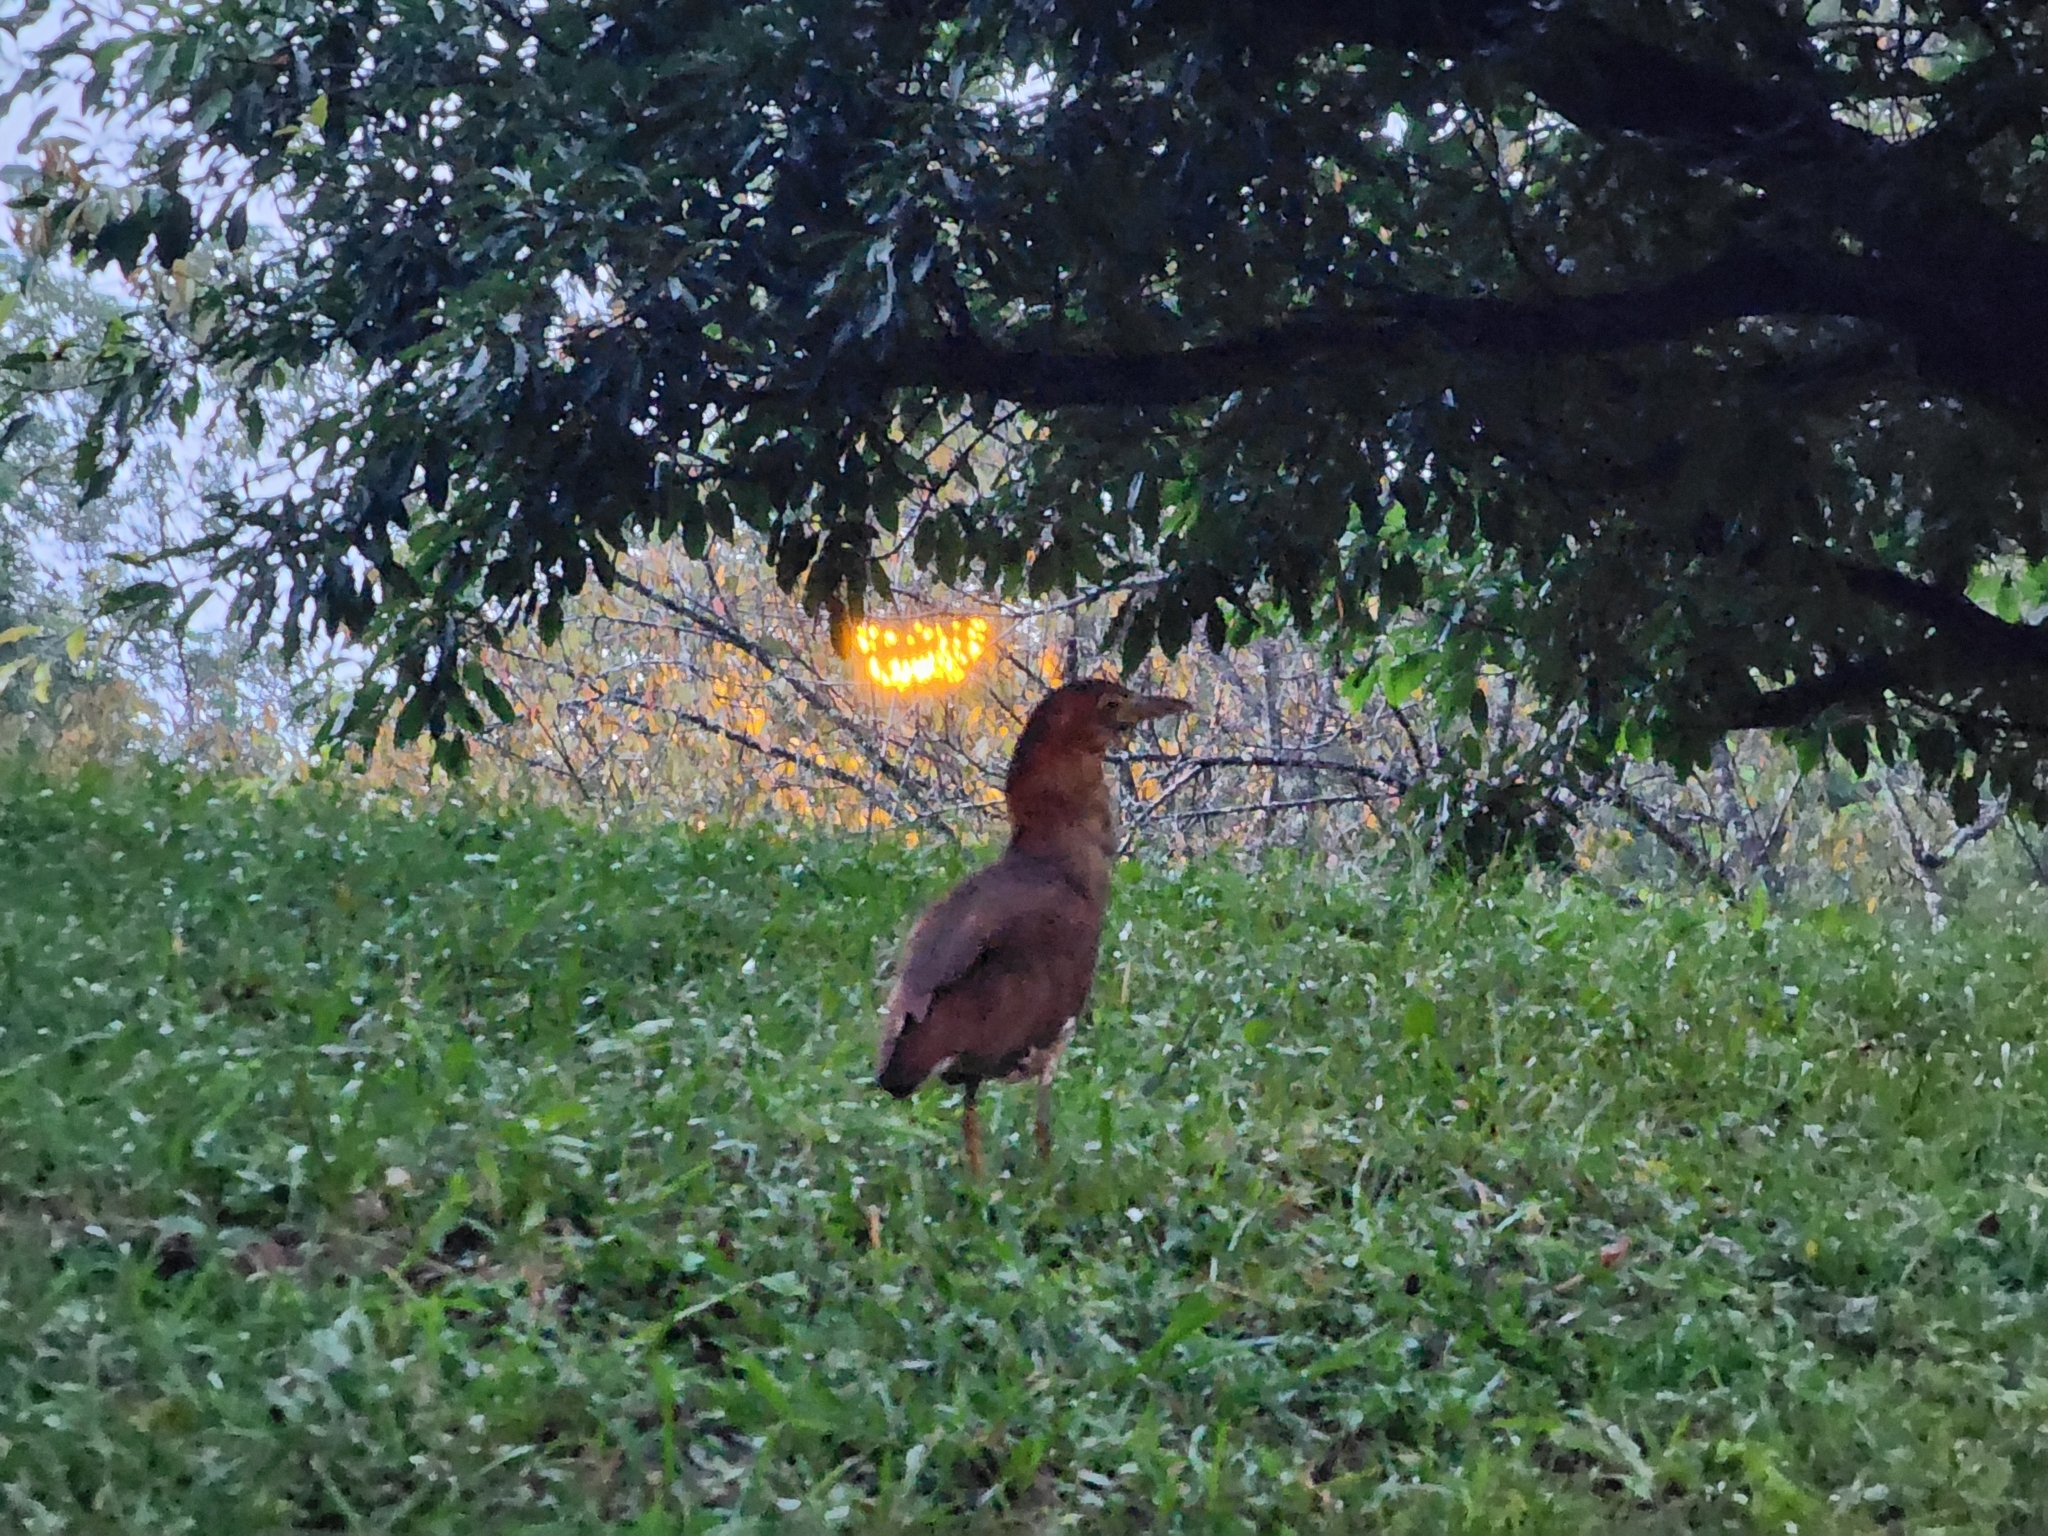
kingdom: Animalia
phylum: Chordata
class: Aves
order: Pelecaniformes
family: Ardeidae
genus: Gorsachius
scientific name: Gorsachius melanolophus
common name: Malayan night heron
